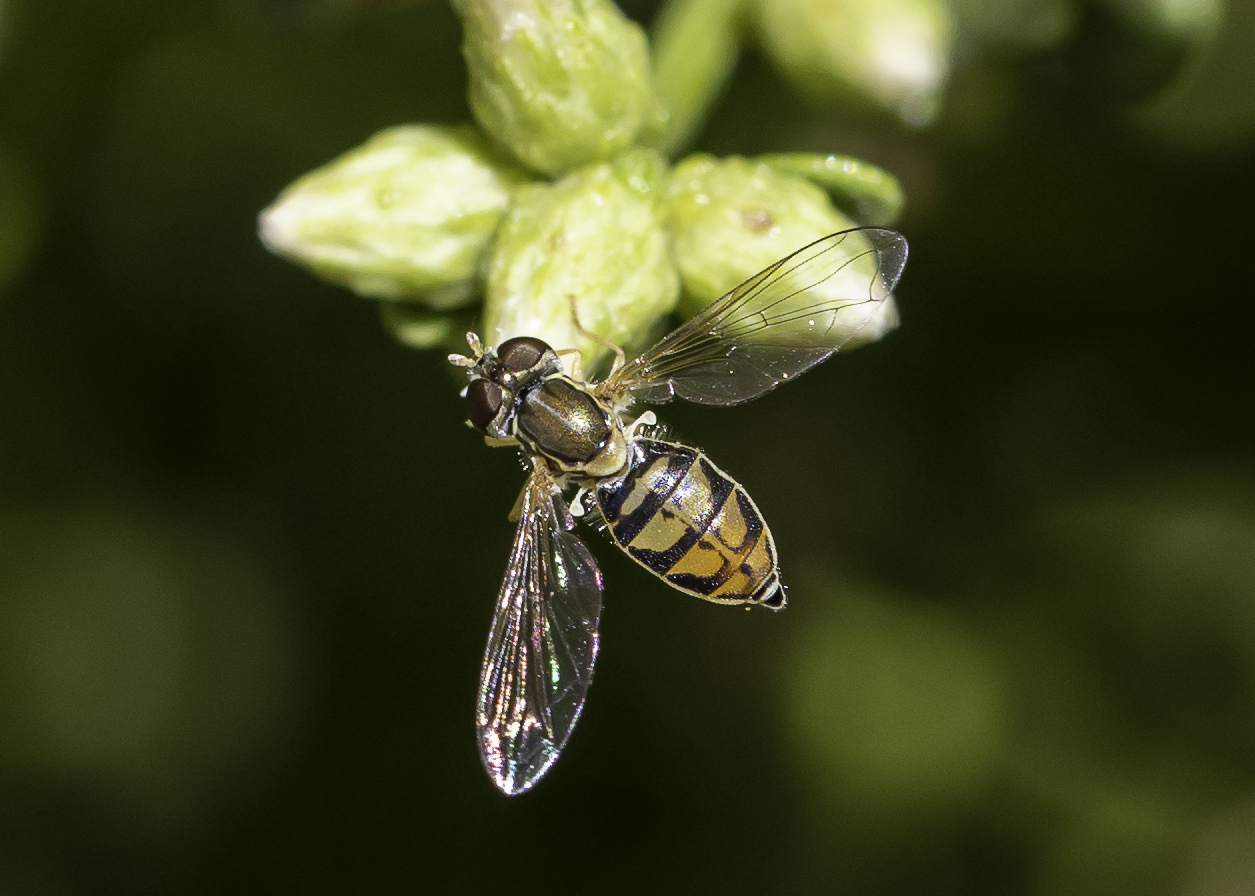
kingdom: Animalia
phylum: Arthropoda
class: Insecta
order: Diptera
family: Syrphidae
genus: Toxomerus
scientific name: Toxomerus marginatus
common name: Syrphid fly
